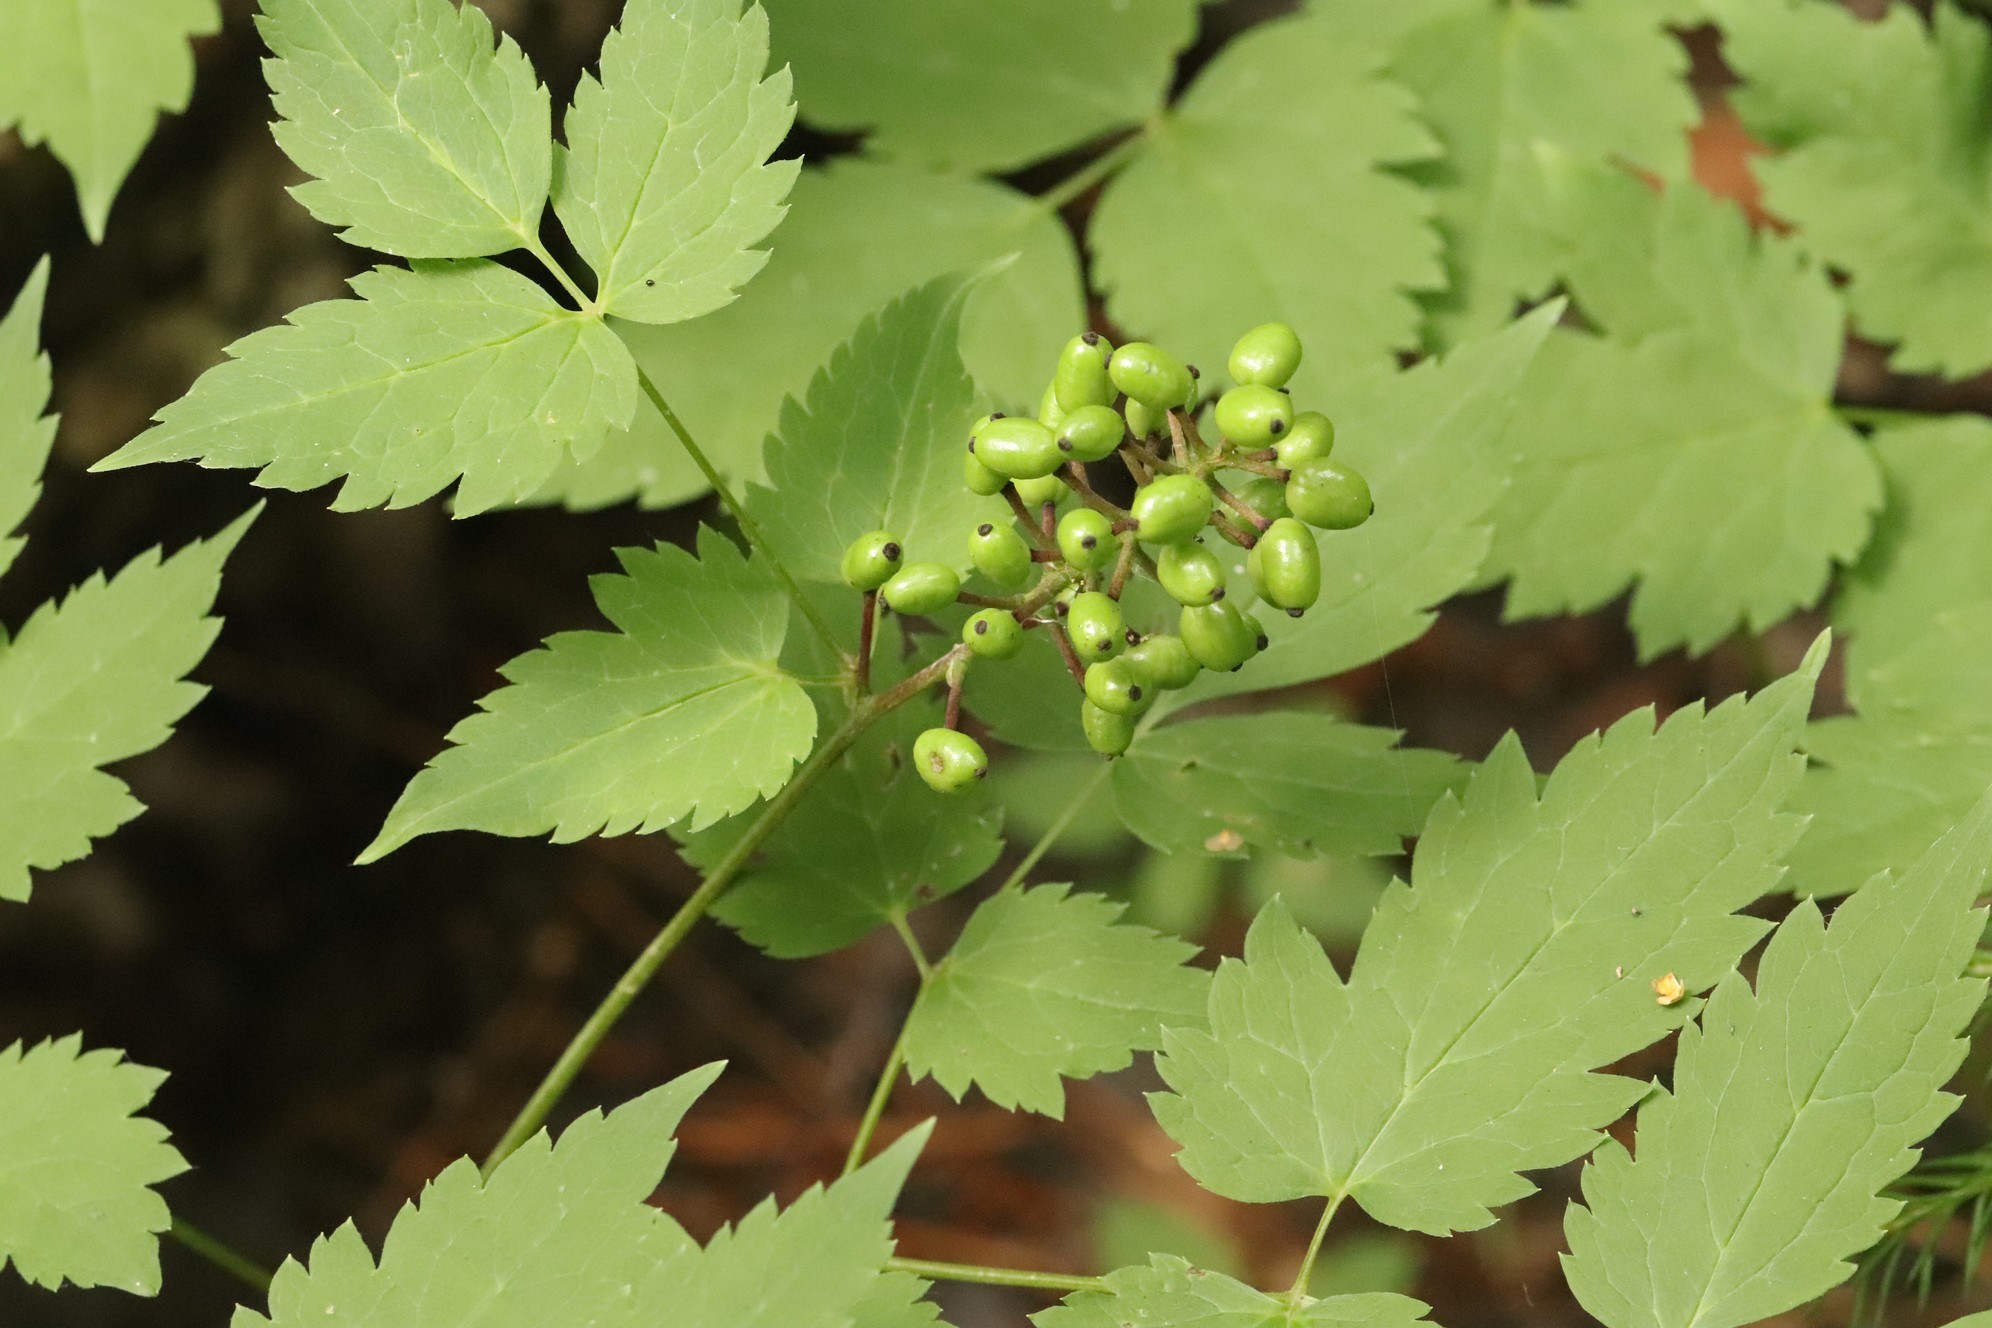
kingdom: Plantae
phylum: Tracheophyta
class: Magnoliopsida
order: Ranunculales
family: Ranunculaceae
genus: Actaea
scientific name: Actaea erythrocarpa
